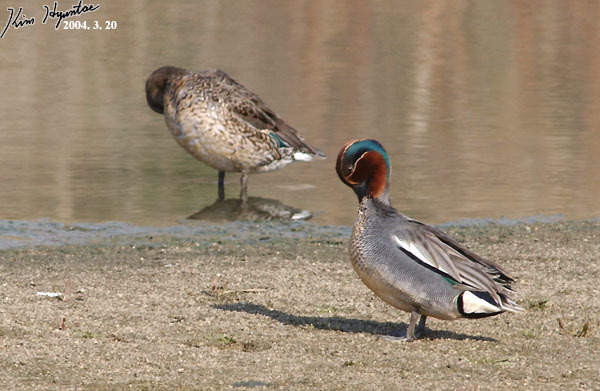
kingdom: Animalia
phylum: Chordata
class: Aves
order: Anseriformes
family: Anatidae
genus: Anas
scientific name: Anas crecca
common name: Eurasian teal
